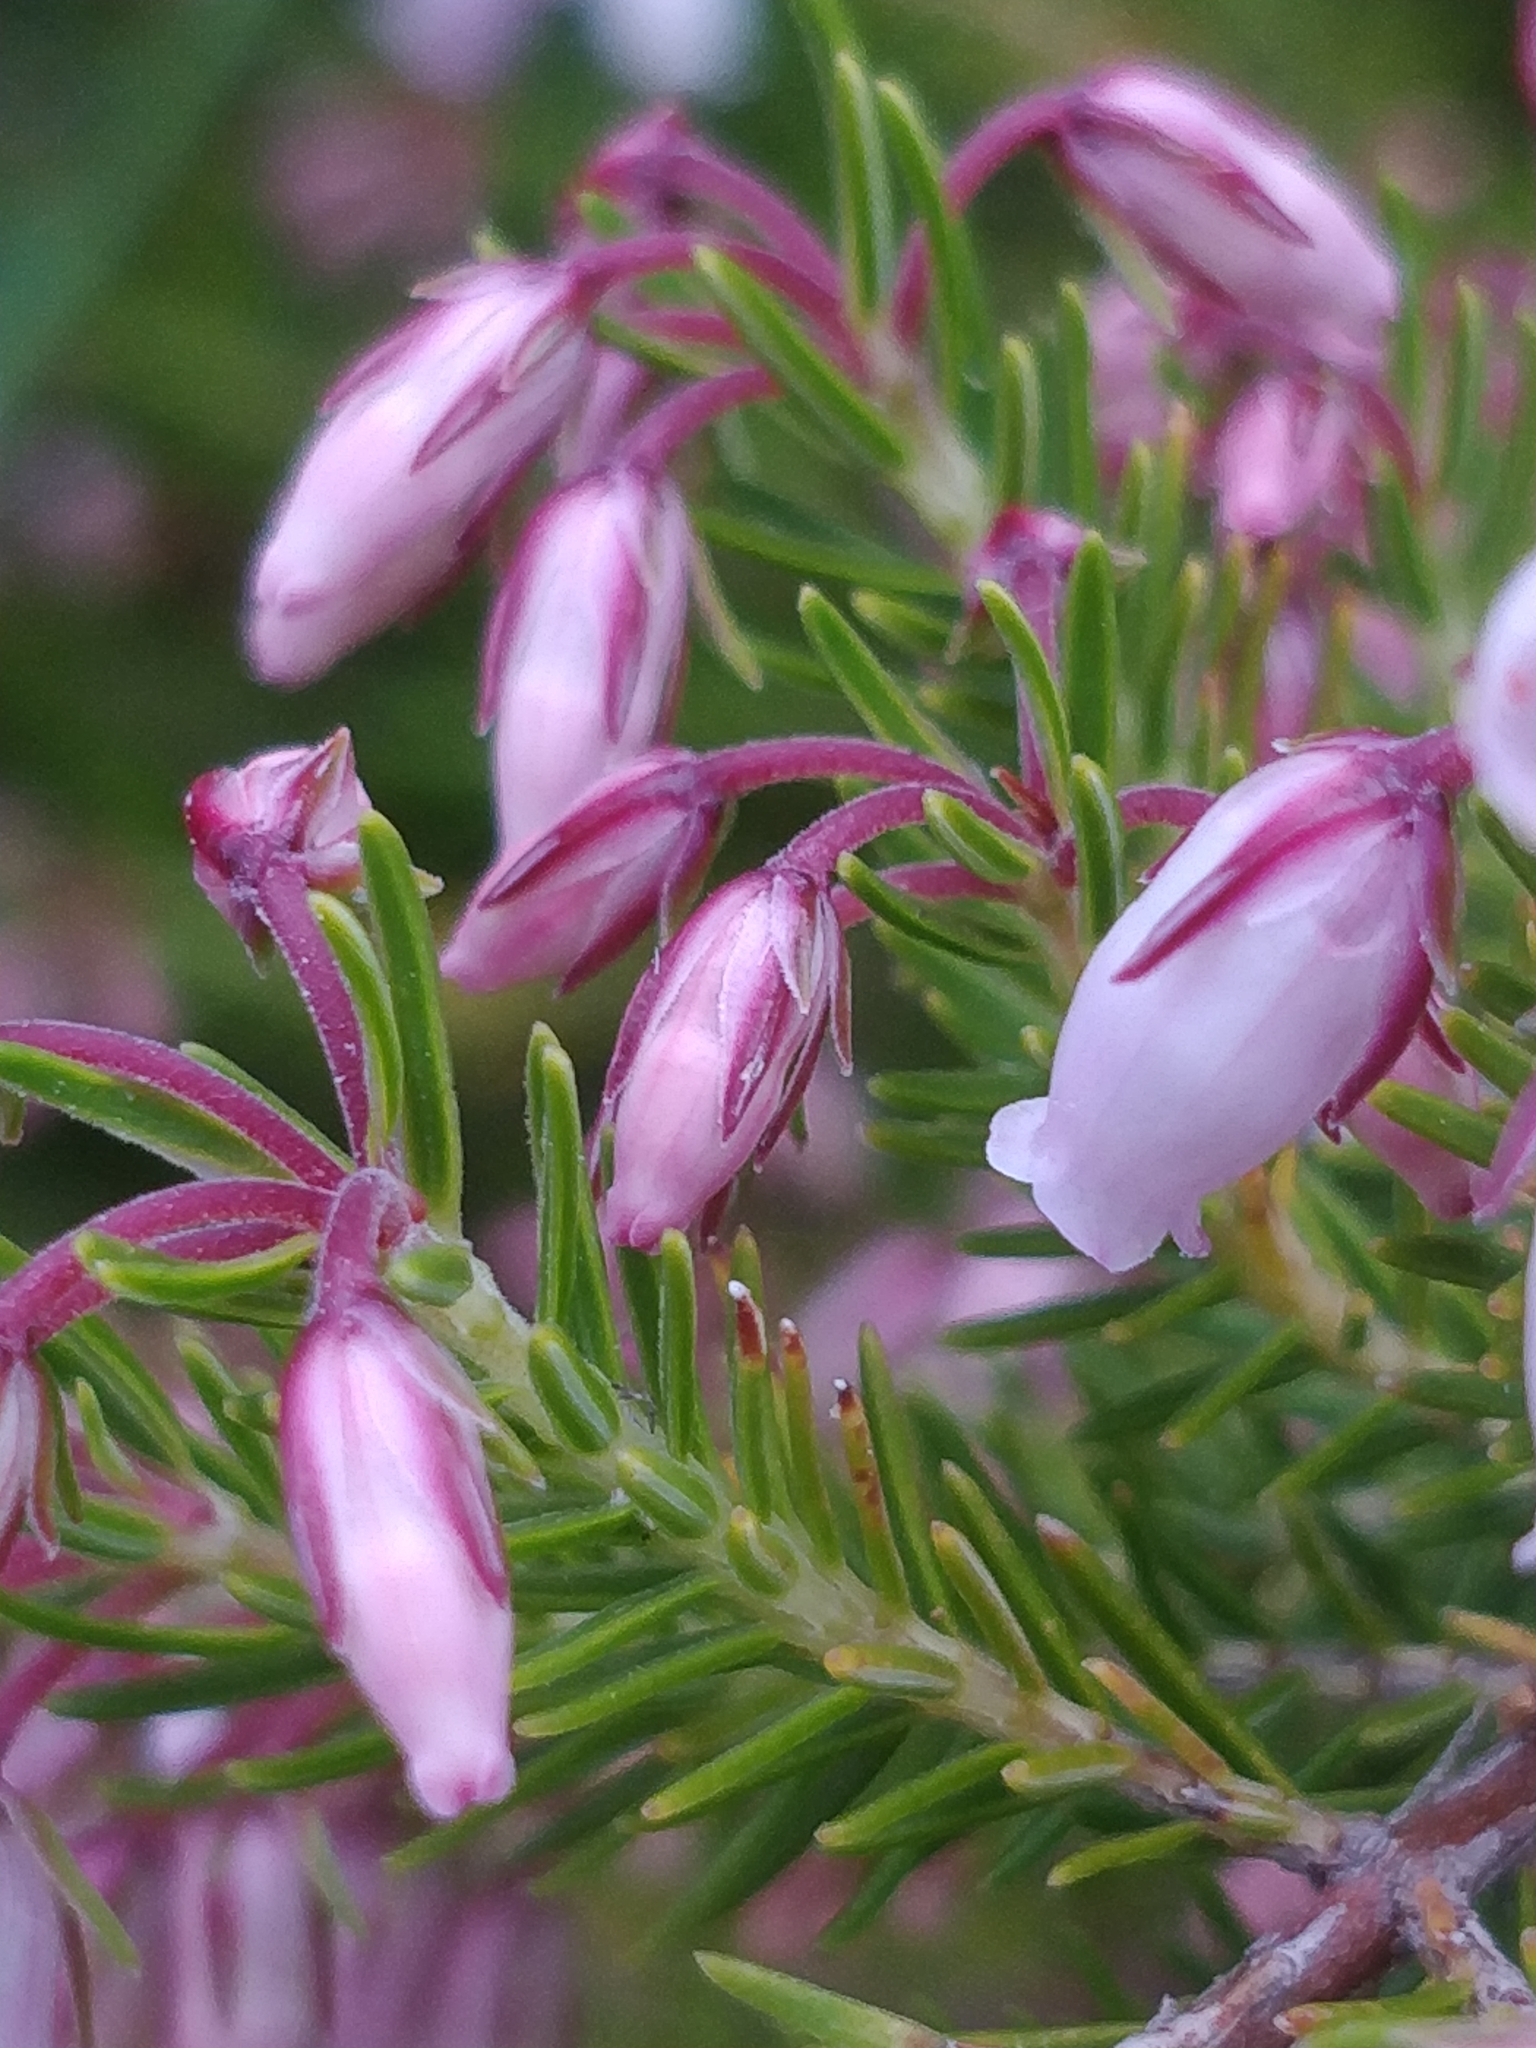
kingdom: Plantae
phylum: Tracheophyta
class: Magnoliopsida
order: Ericales
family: Ericaceae
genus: Erica
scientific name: Erica maderensis
